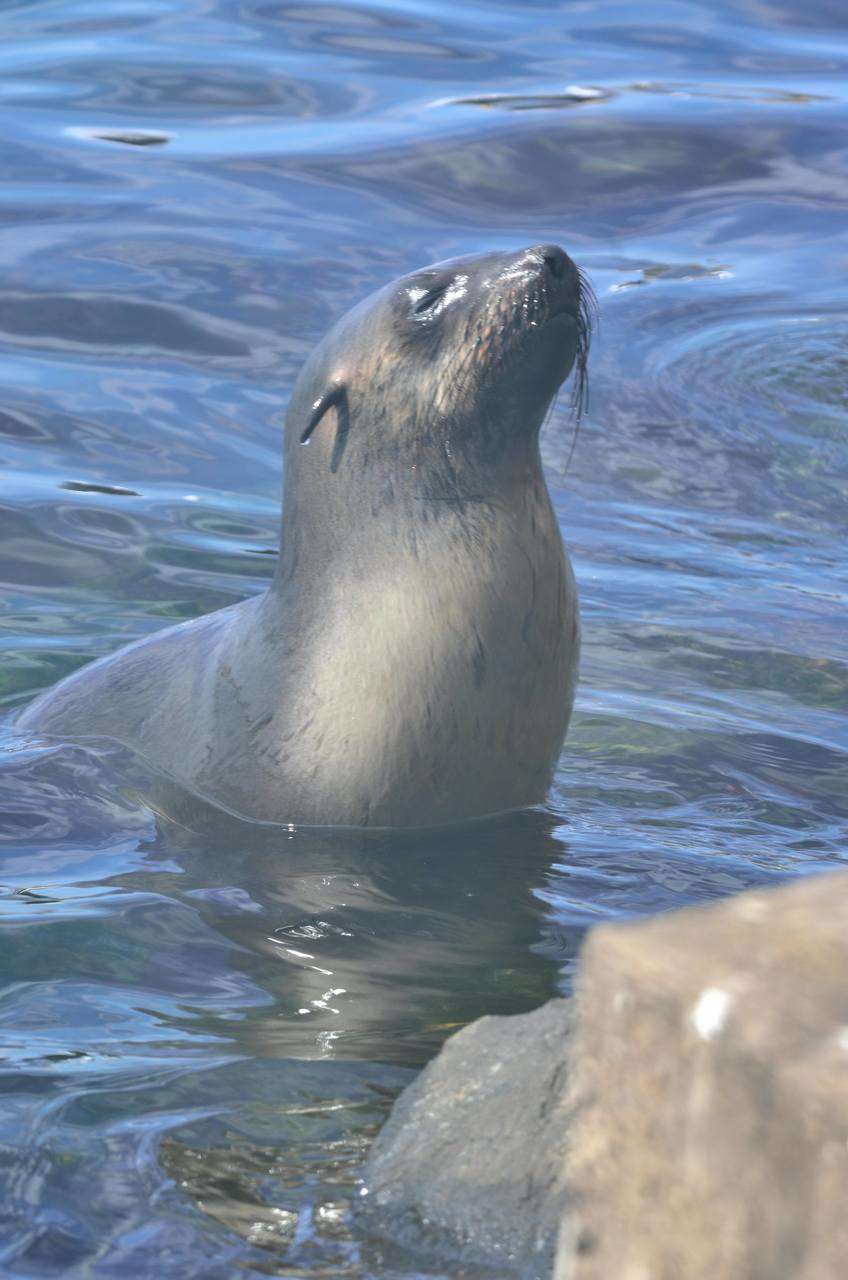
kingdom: Animalia
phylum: Chordata
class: Mammalia
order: Carnivora
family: Otariidae
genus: Arctocephalus
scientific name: Arctocephalus pusillus
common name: Brown fur seal
